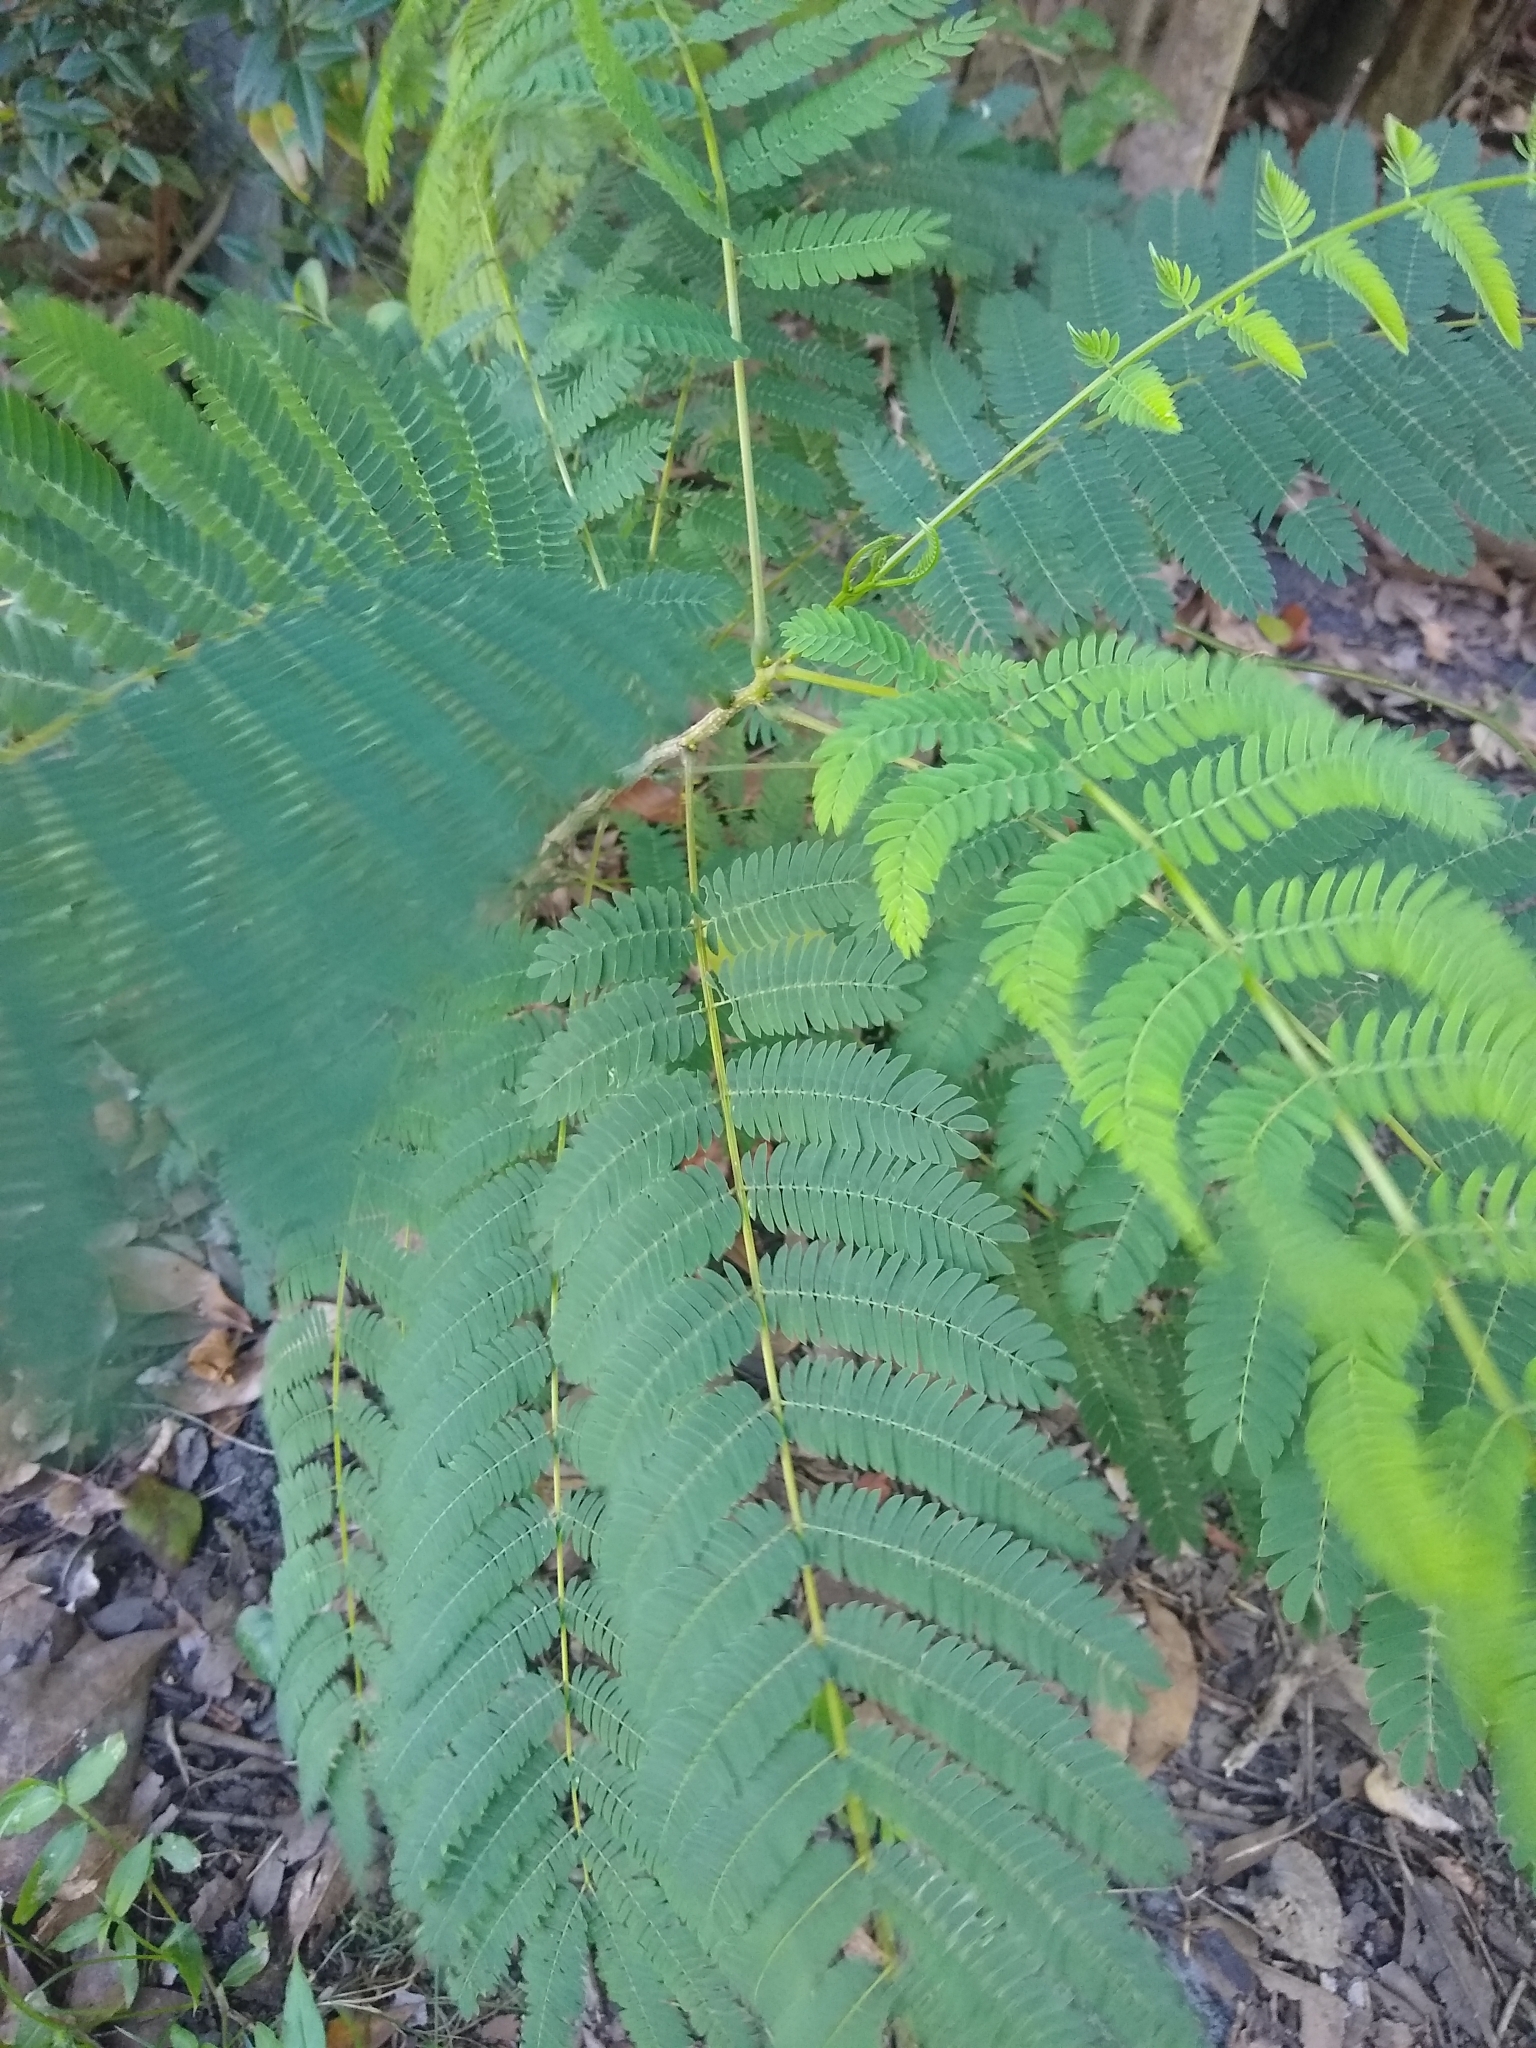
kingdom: Plantae
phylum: Tracheophyta
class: Magnoliopsida
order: Fabales
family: Fabaceae
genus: Albizia
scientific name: Albizia julibrissin
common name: Silktree
